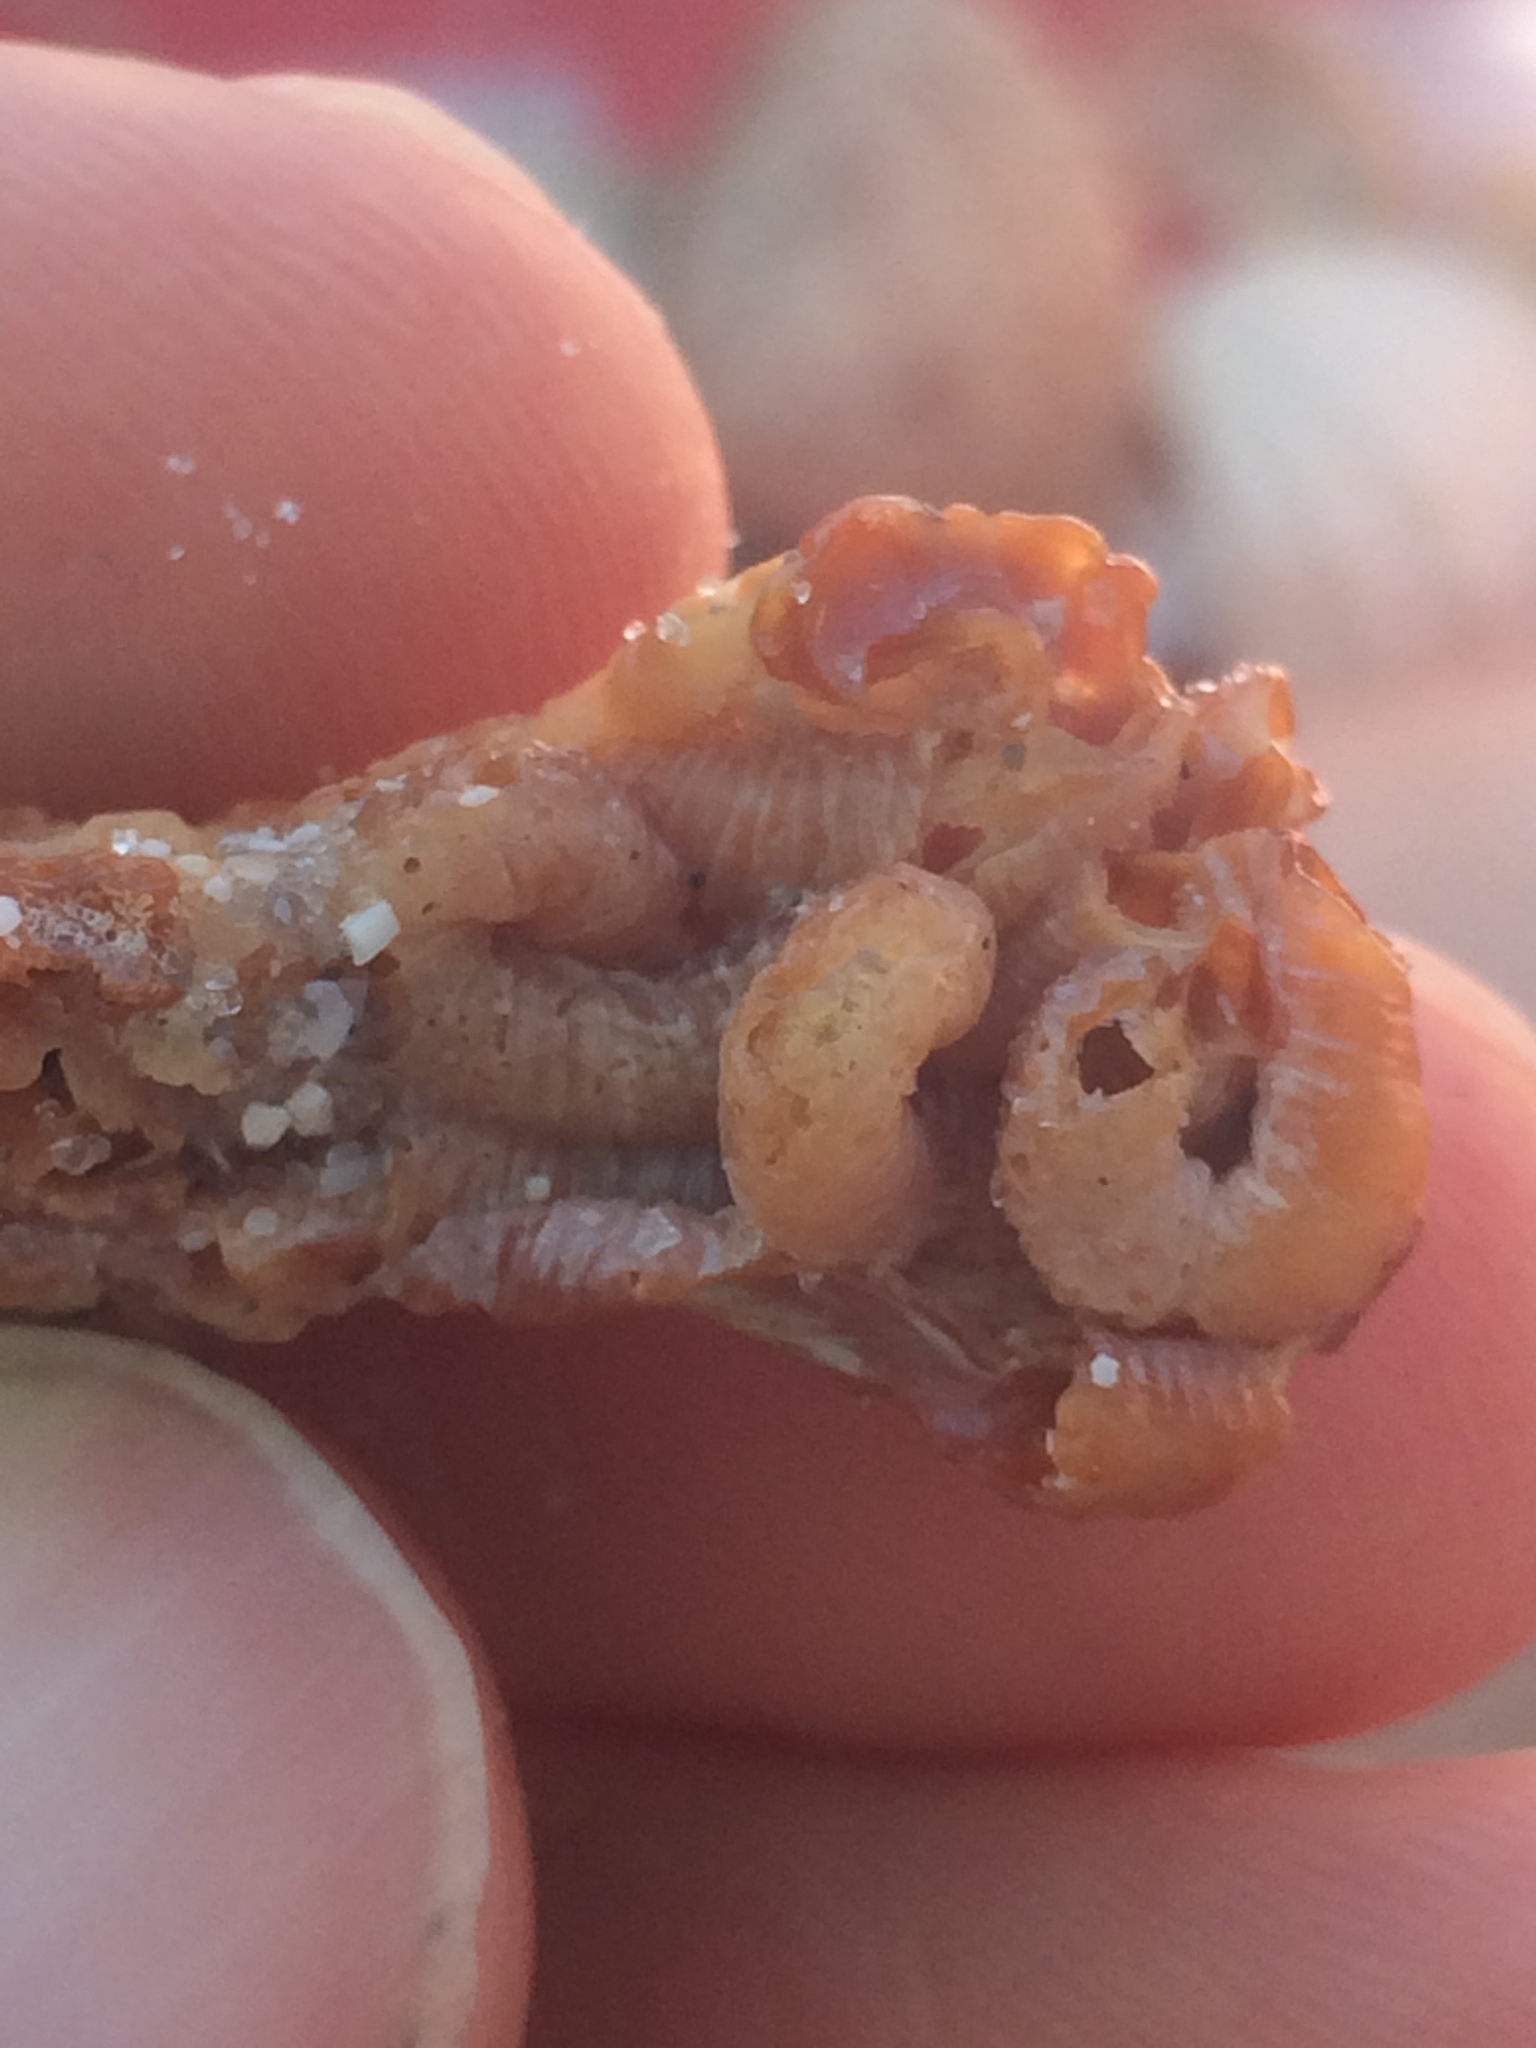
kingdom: Animalia
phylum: Mollusca
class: Gastropoda
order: Littorinimorpha
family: Vermetidae
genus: Petaloconchus
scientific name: Petaloconchus varians
